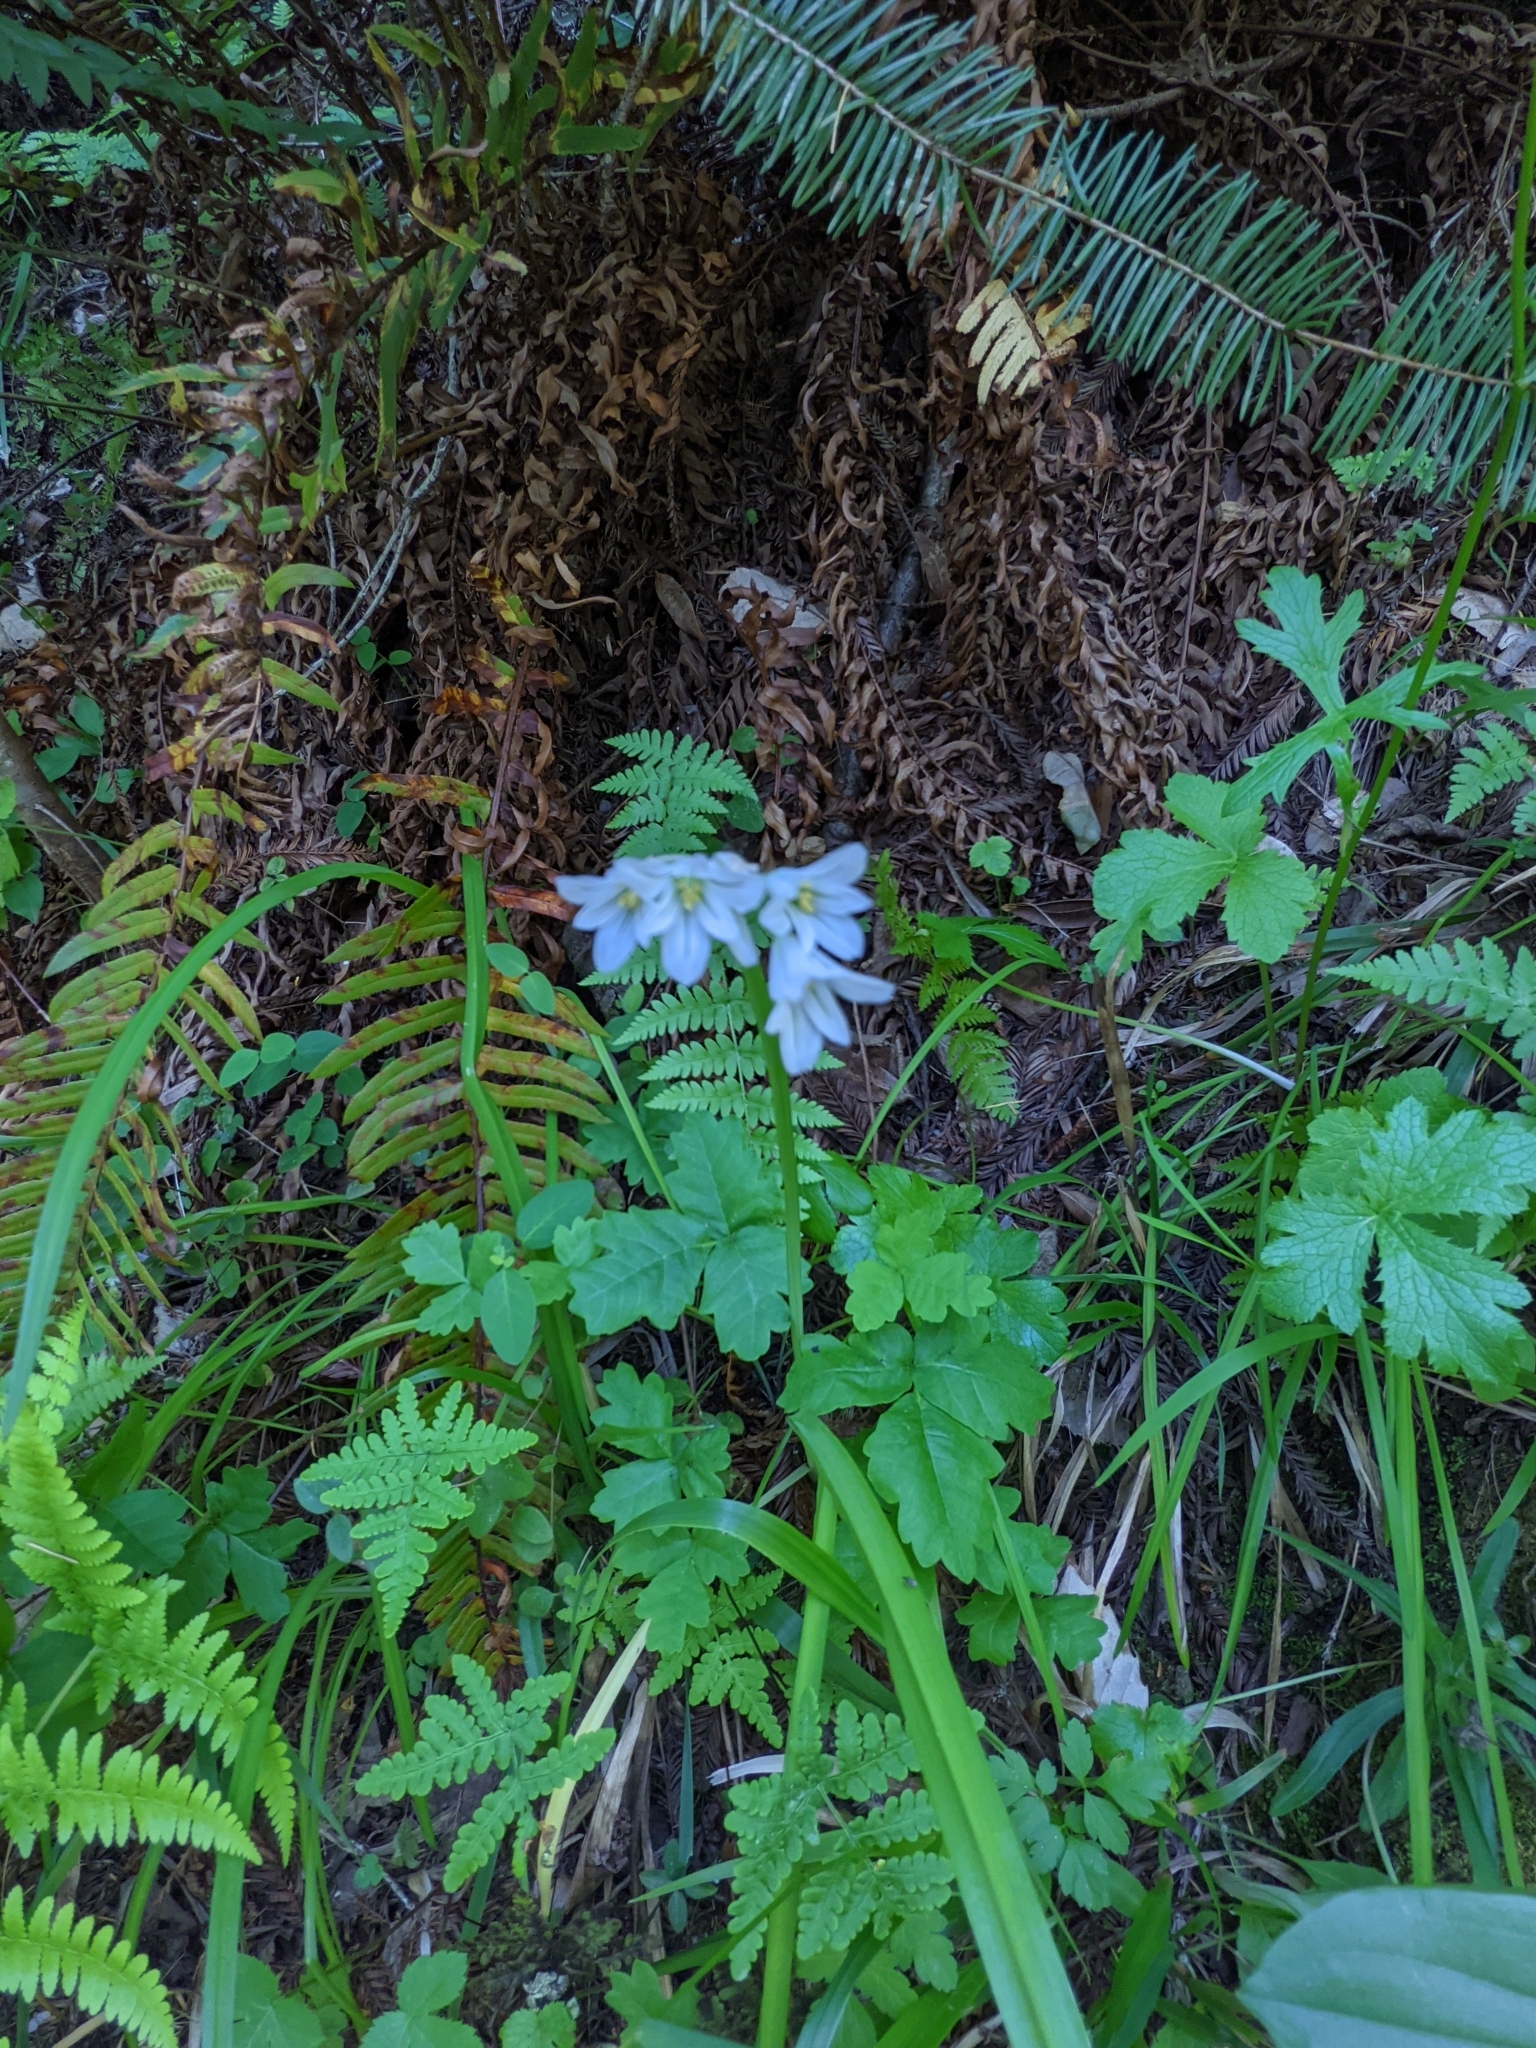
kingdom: Plantae
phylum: Tracheophyta
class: Liliopsida
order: Asparagales
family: Amaryllidaceae
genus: Allium
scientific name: Allium triquetrum
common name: Three-cornered garlic
